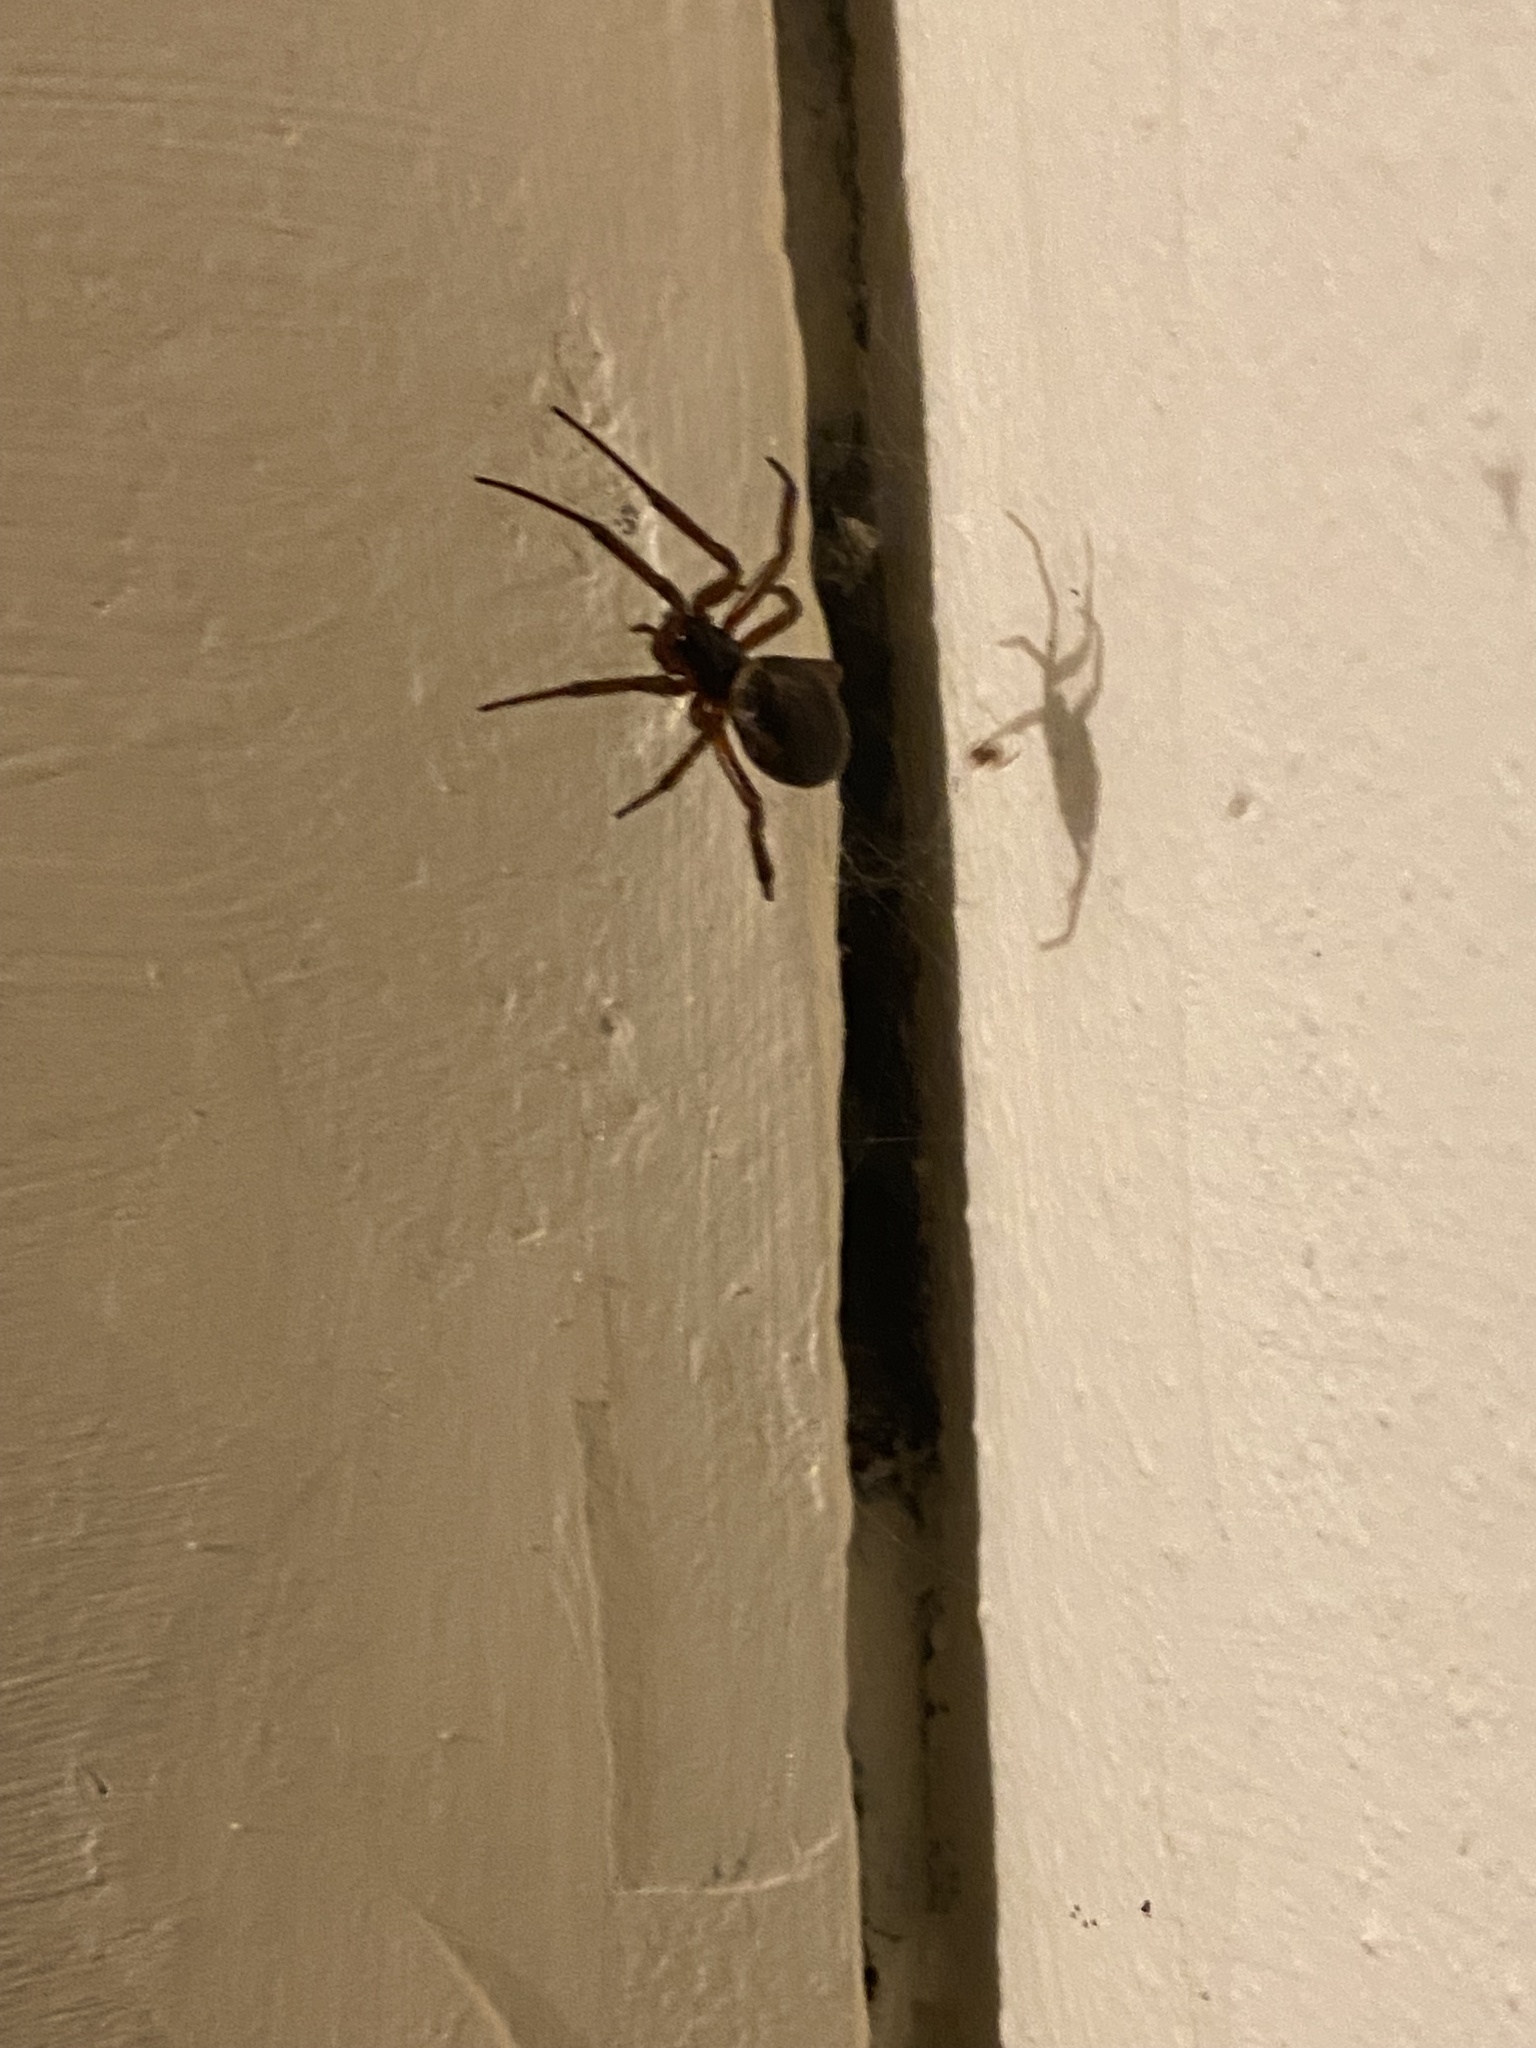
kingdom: Animalia
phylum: Arthropoda
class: Arachnida
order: Araneae
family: Theridiidae
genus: Steatoda
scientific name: Steatoda nobilis
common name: Cobweb weaver
